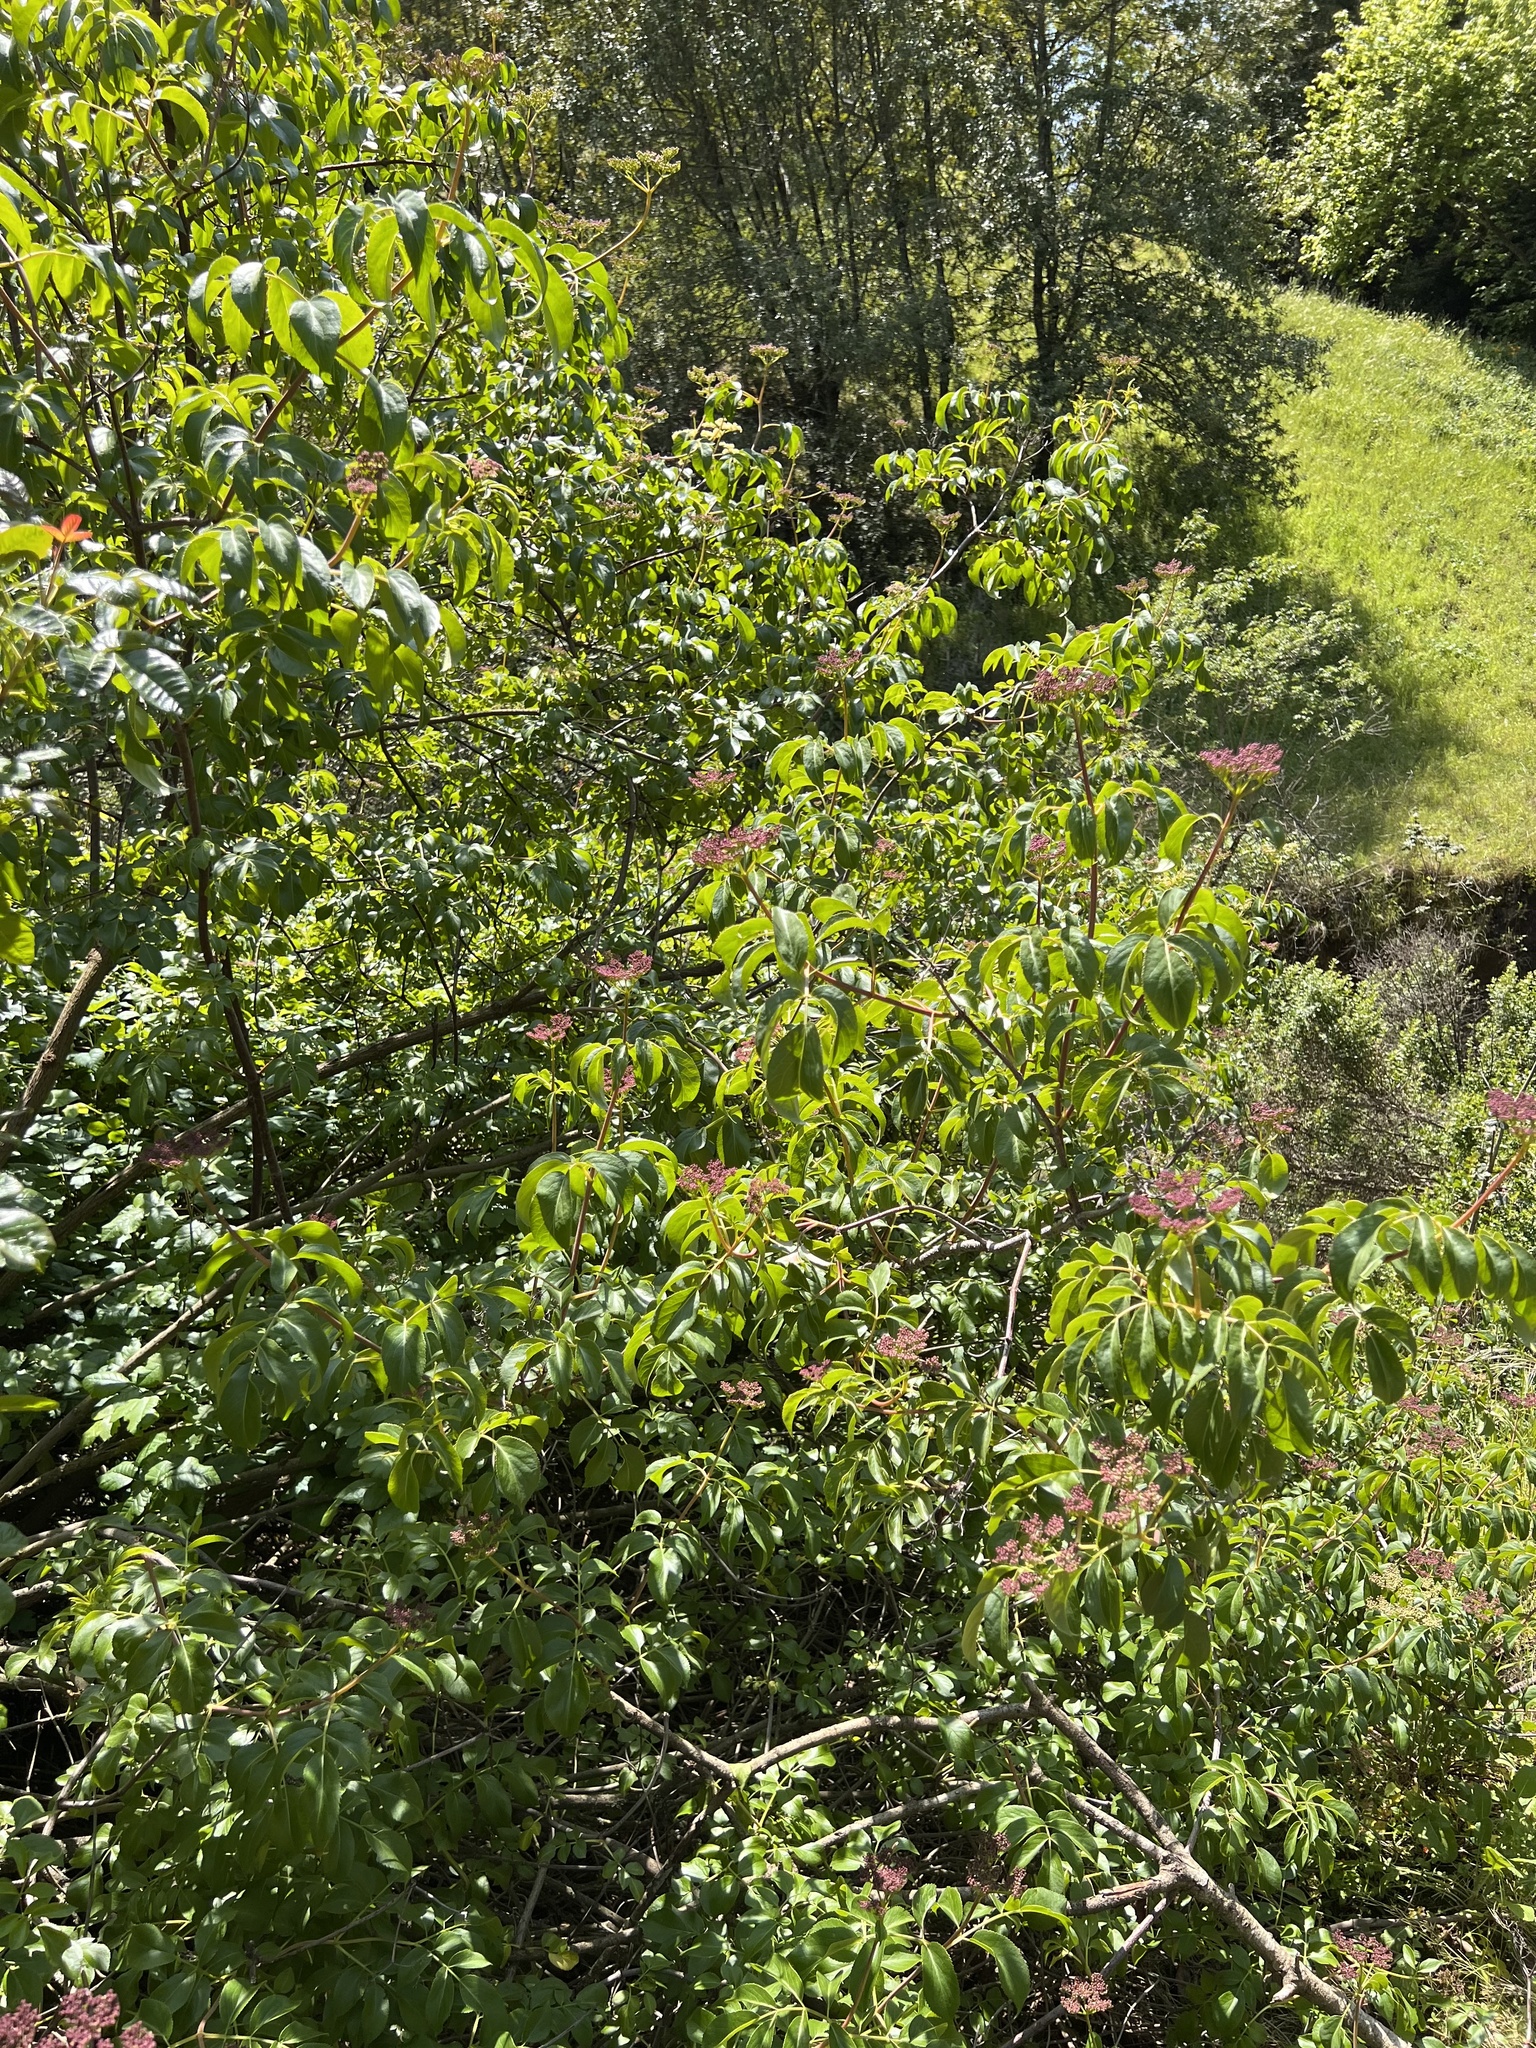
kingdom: Plantae
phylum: Tracheophyta
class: Magnoliopsida
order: Dipsacales
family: Viburnaceae
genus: Sambucus
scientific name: Sambucus cerulea
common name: Blue elder
